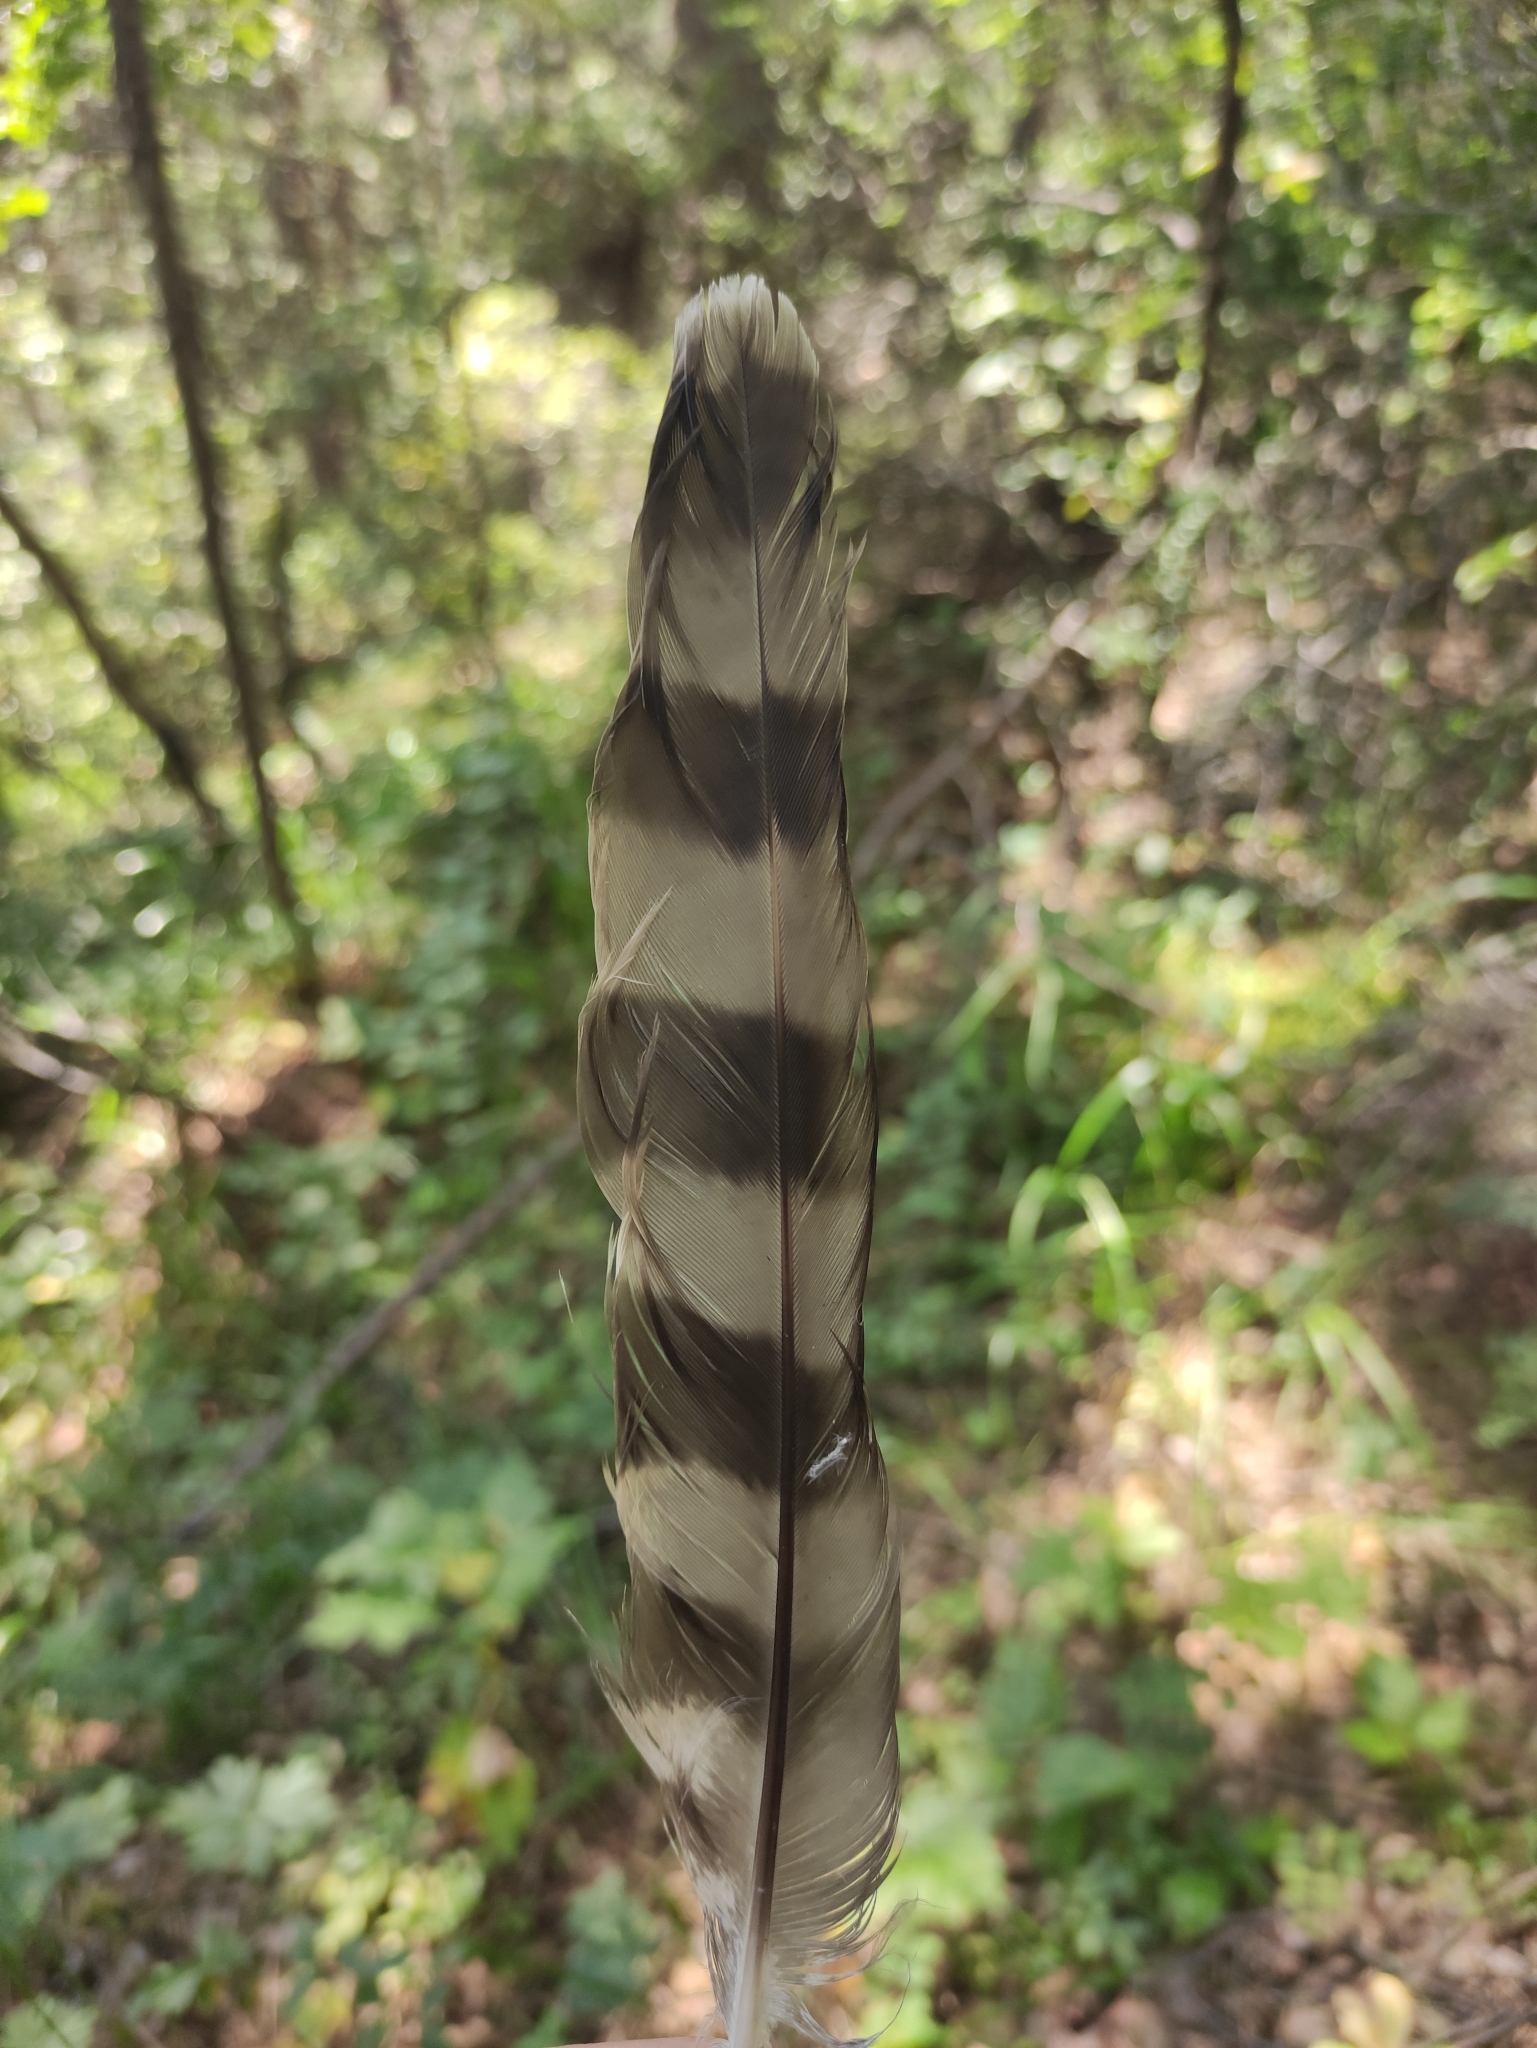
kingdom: Animalia
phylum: Chordata
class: Aves
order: Accipitriformes
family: Accipitridae
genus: Accipiter
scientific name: Accipiter nisus
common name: Eurasian sparrowhawk
